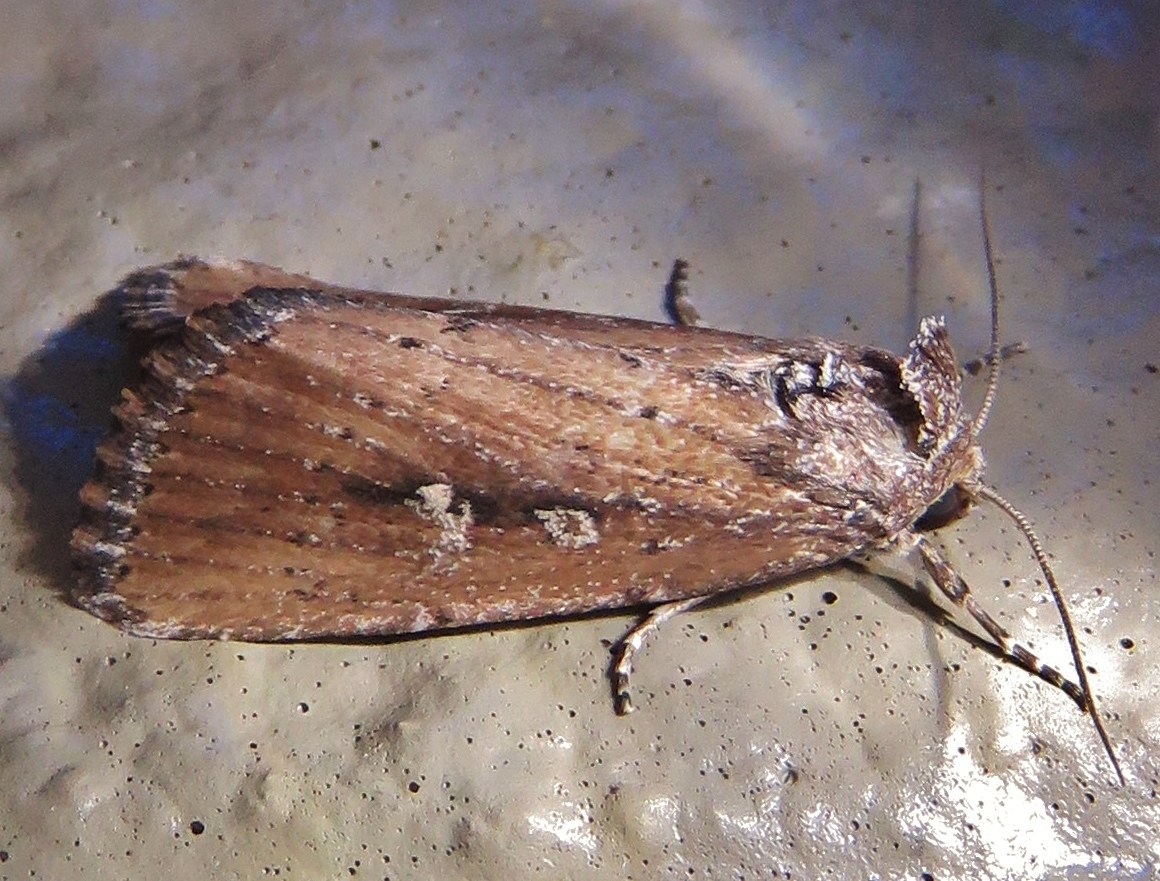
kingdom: Animalia
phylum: Arthropoda
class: Insecta
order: Lepidoptera
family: Noctuidae
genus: Condica
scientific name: Condica videns
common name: White-dotted groundling
